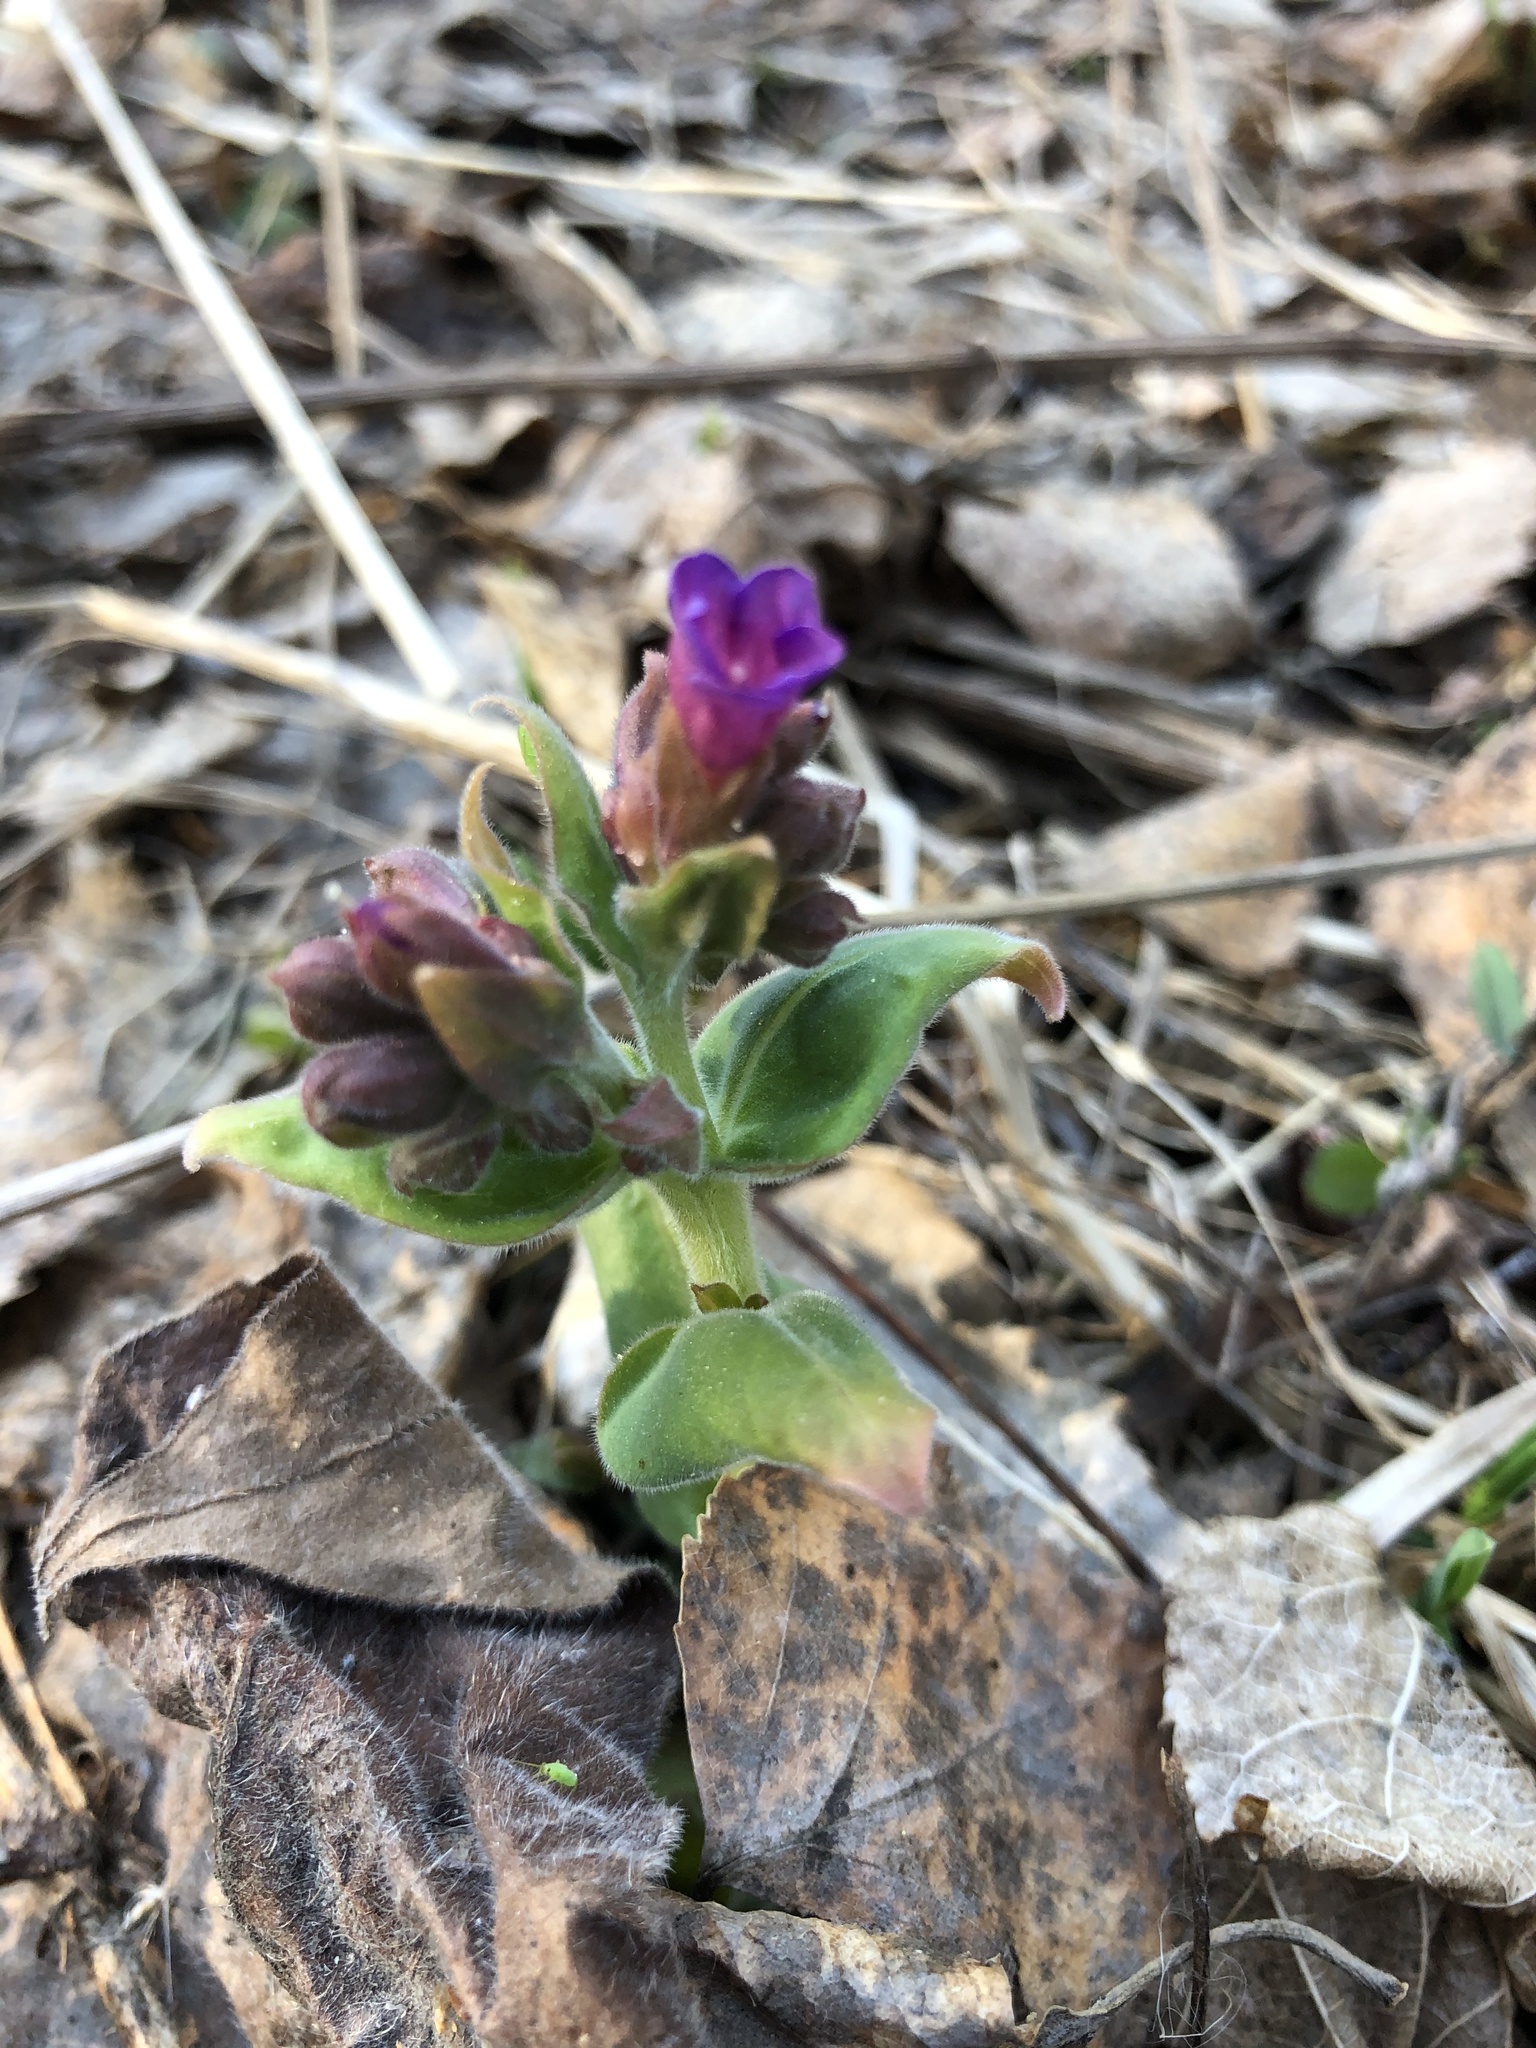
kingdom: Plantae
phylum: Tracheophyta
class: Magnoliopsida
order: Boraginales
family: Boraginaceae
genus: Pulmonaria
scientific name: Pulmonaria mollis
